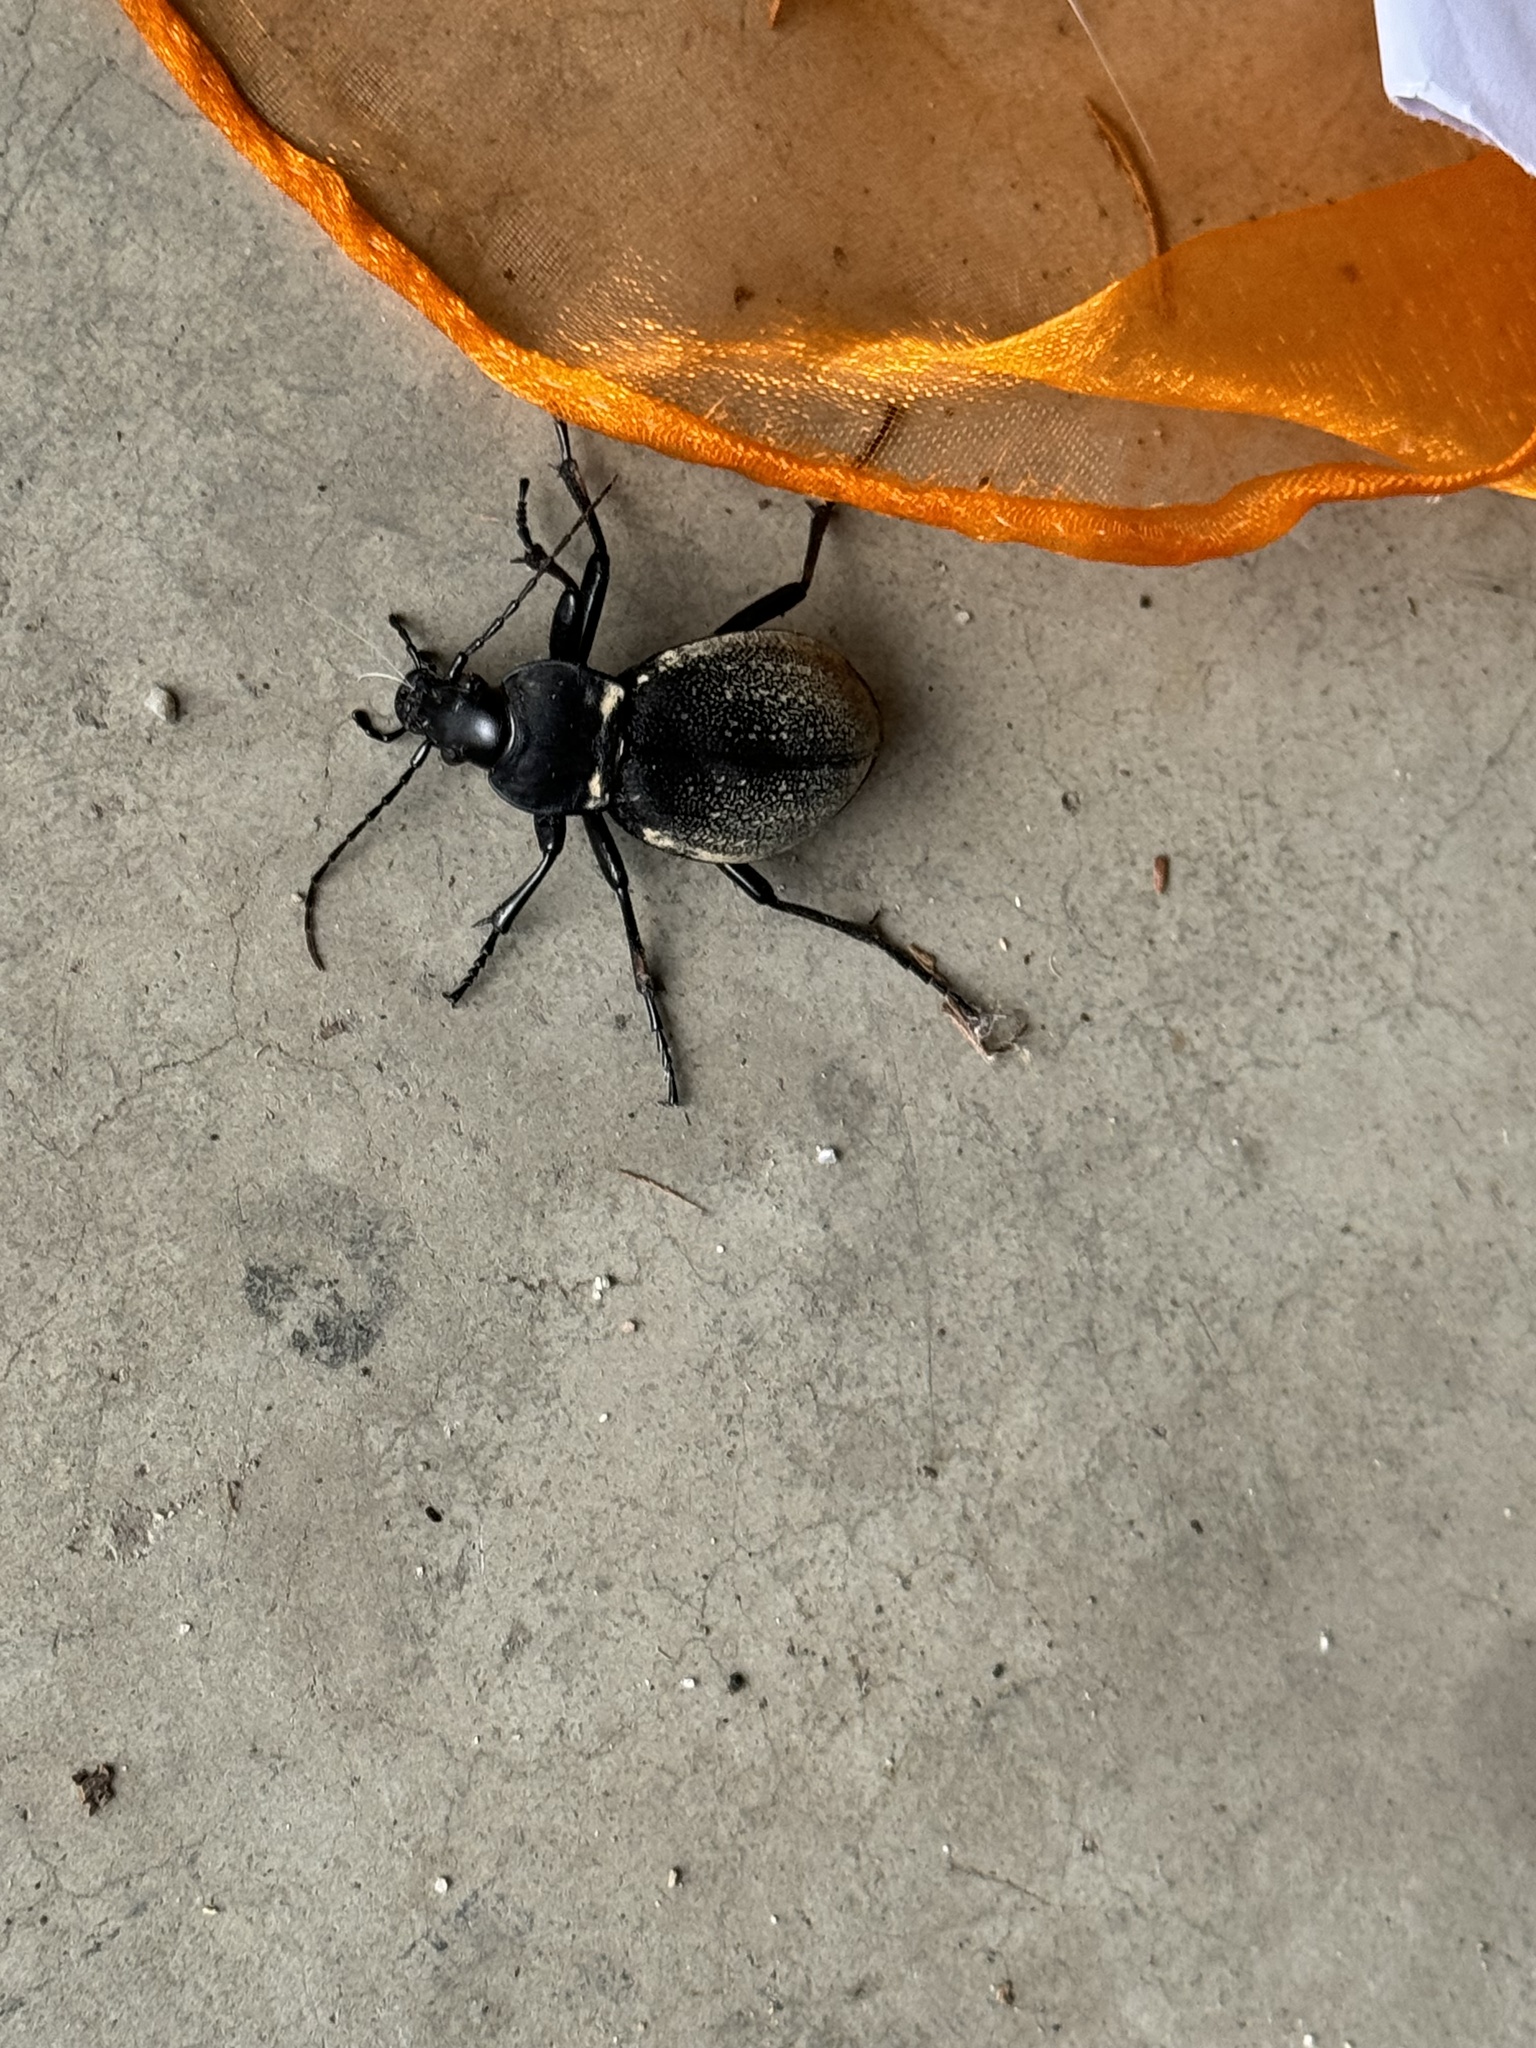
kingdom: Animalia
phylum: Arthropoda
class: Insecta
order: Coleoptera
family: Carabidae
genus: Carabus
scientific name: Carabus coriaceus
